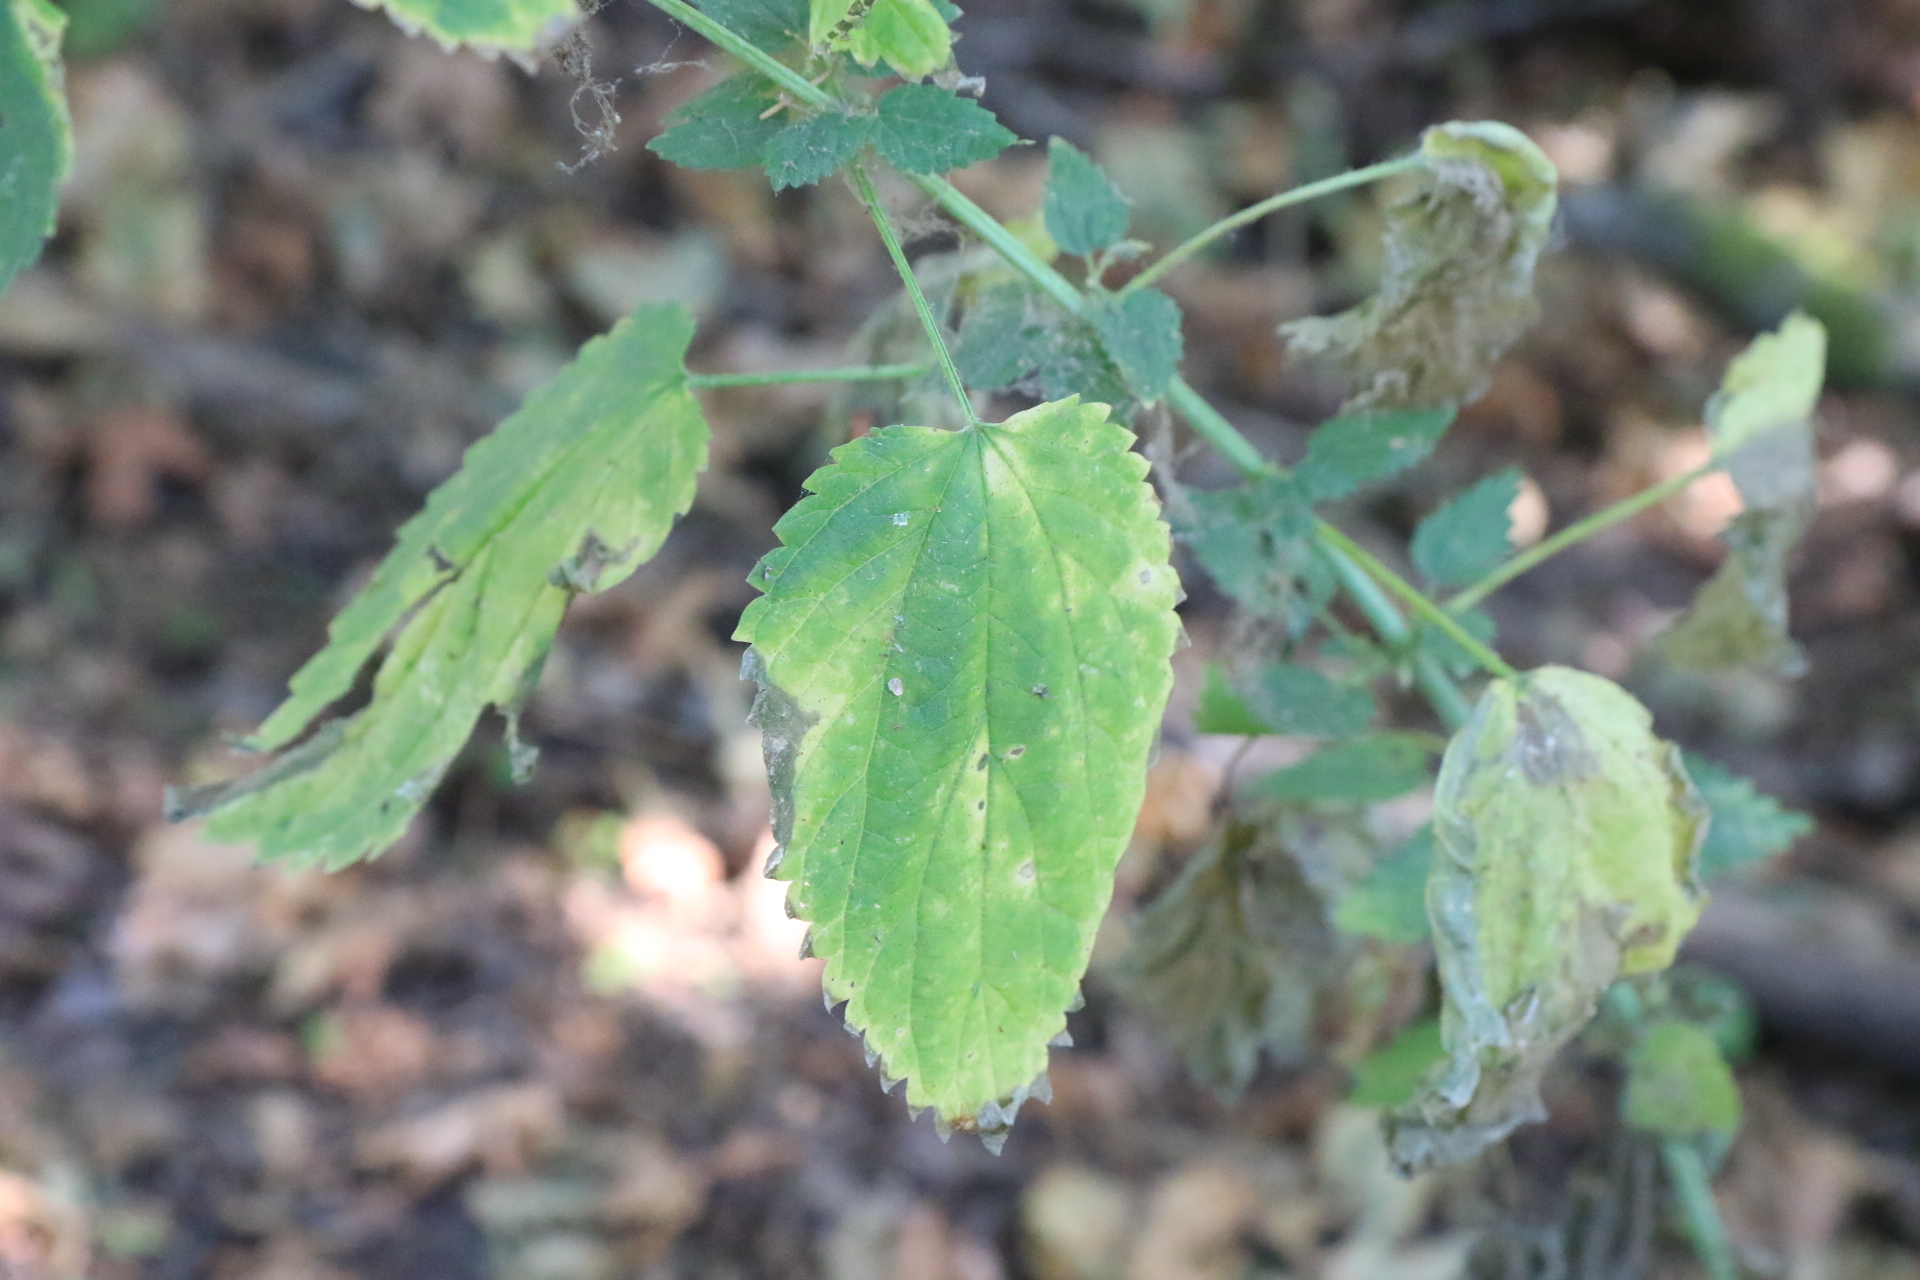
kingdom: Plantae
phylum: Tracheophyta
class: Magnoliopsida
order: Rosales
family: Urticaceae
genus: Urtica
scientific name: Urtica gracilis
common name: Slender stinging nettle
